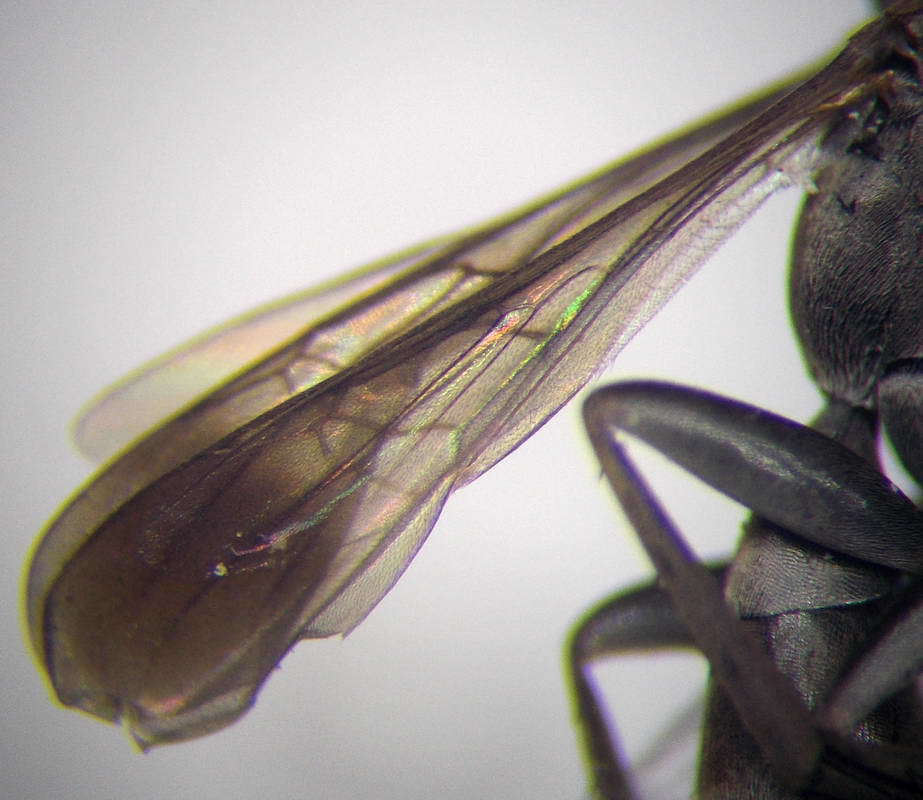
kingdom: Animalia
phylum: Arthropoda
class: Insecta
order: Hymenoptera
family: Pompilidae
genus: Microphadnus
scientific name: Microphadnus pumilus
